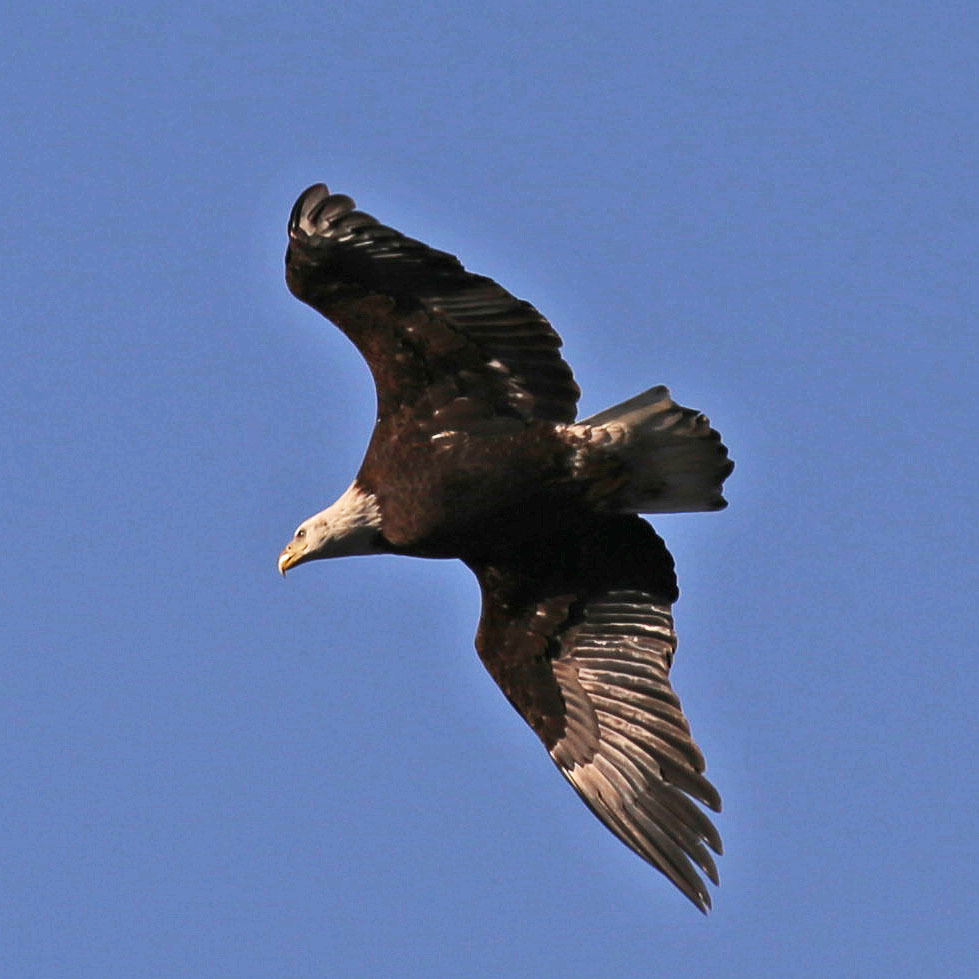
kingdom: Animalia
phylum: Chordata
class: Aves
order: Accipitriformes
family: Accipitridae
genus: Haliaeetus
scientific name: Haliaeetus leucocephalus
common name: Bald eagle
